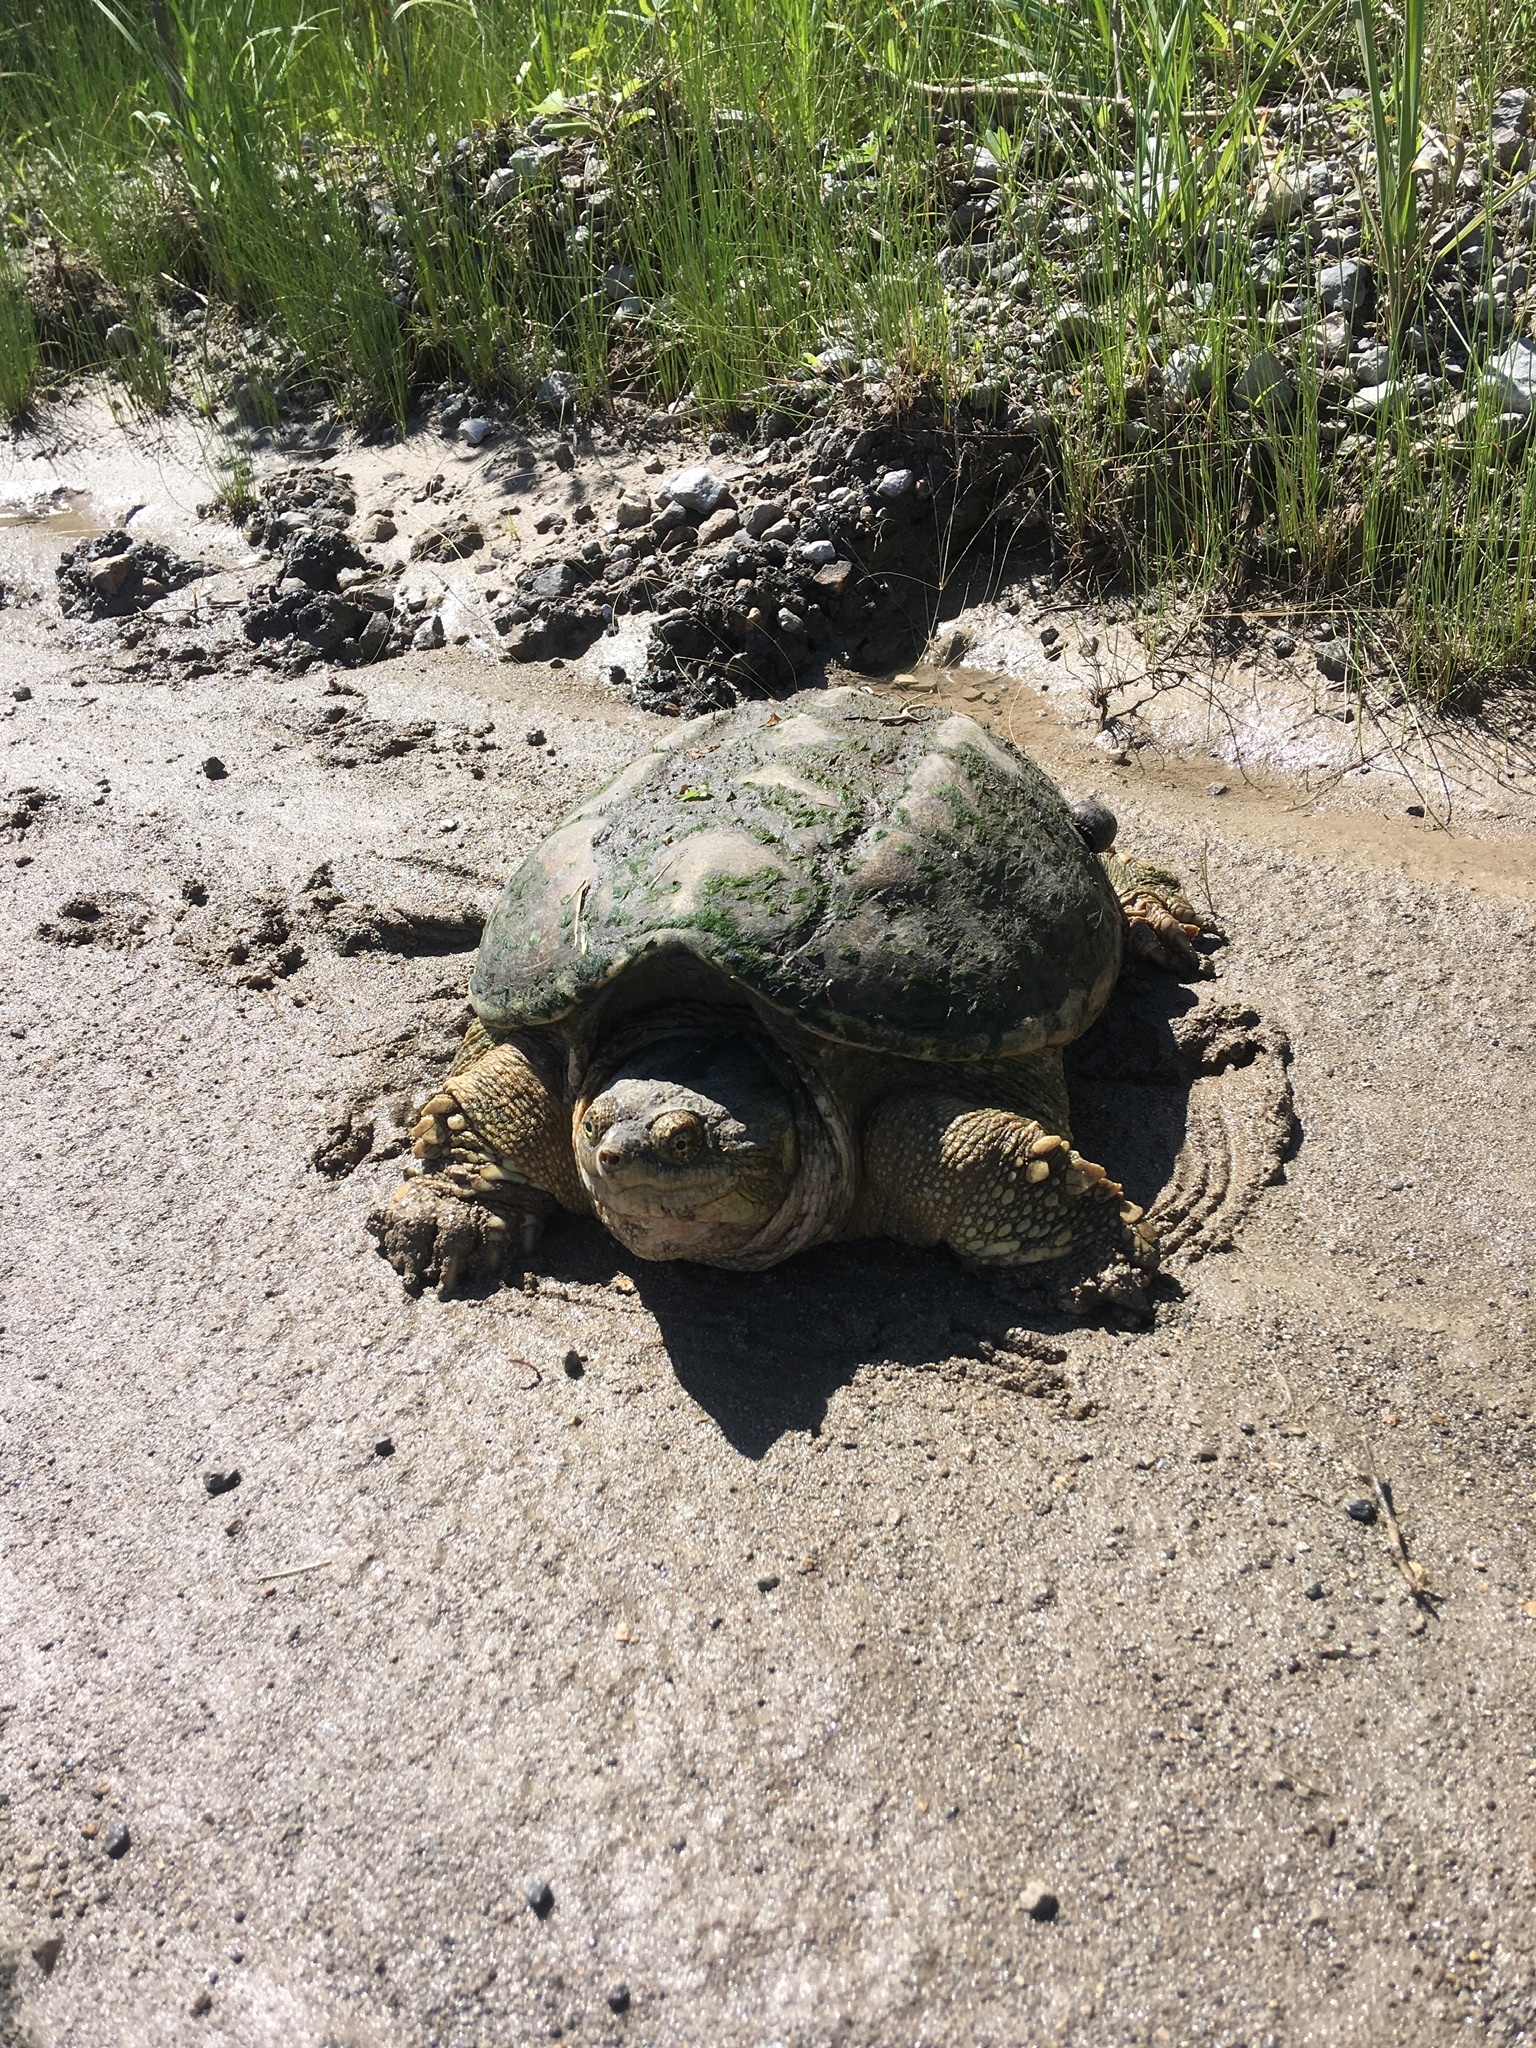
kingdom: Animalia
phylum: Chordata
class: Testudines
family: Chelydridae
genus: Chelydra
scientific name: Chelydra serpentina
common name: Common snapping turtle
